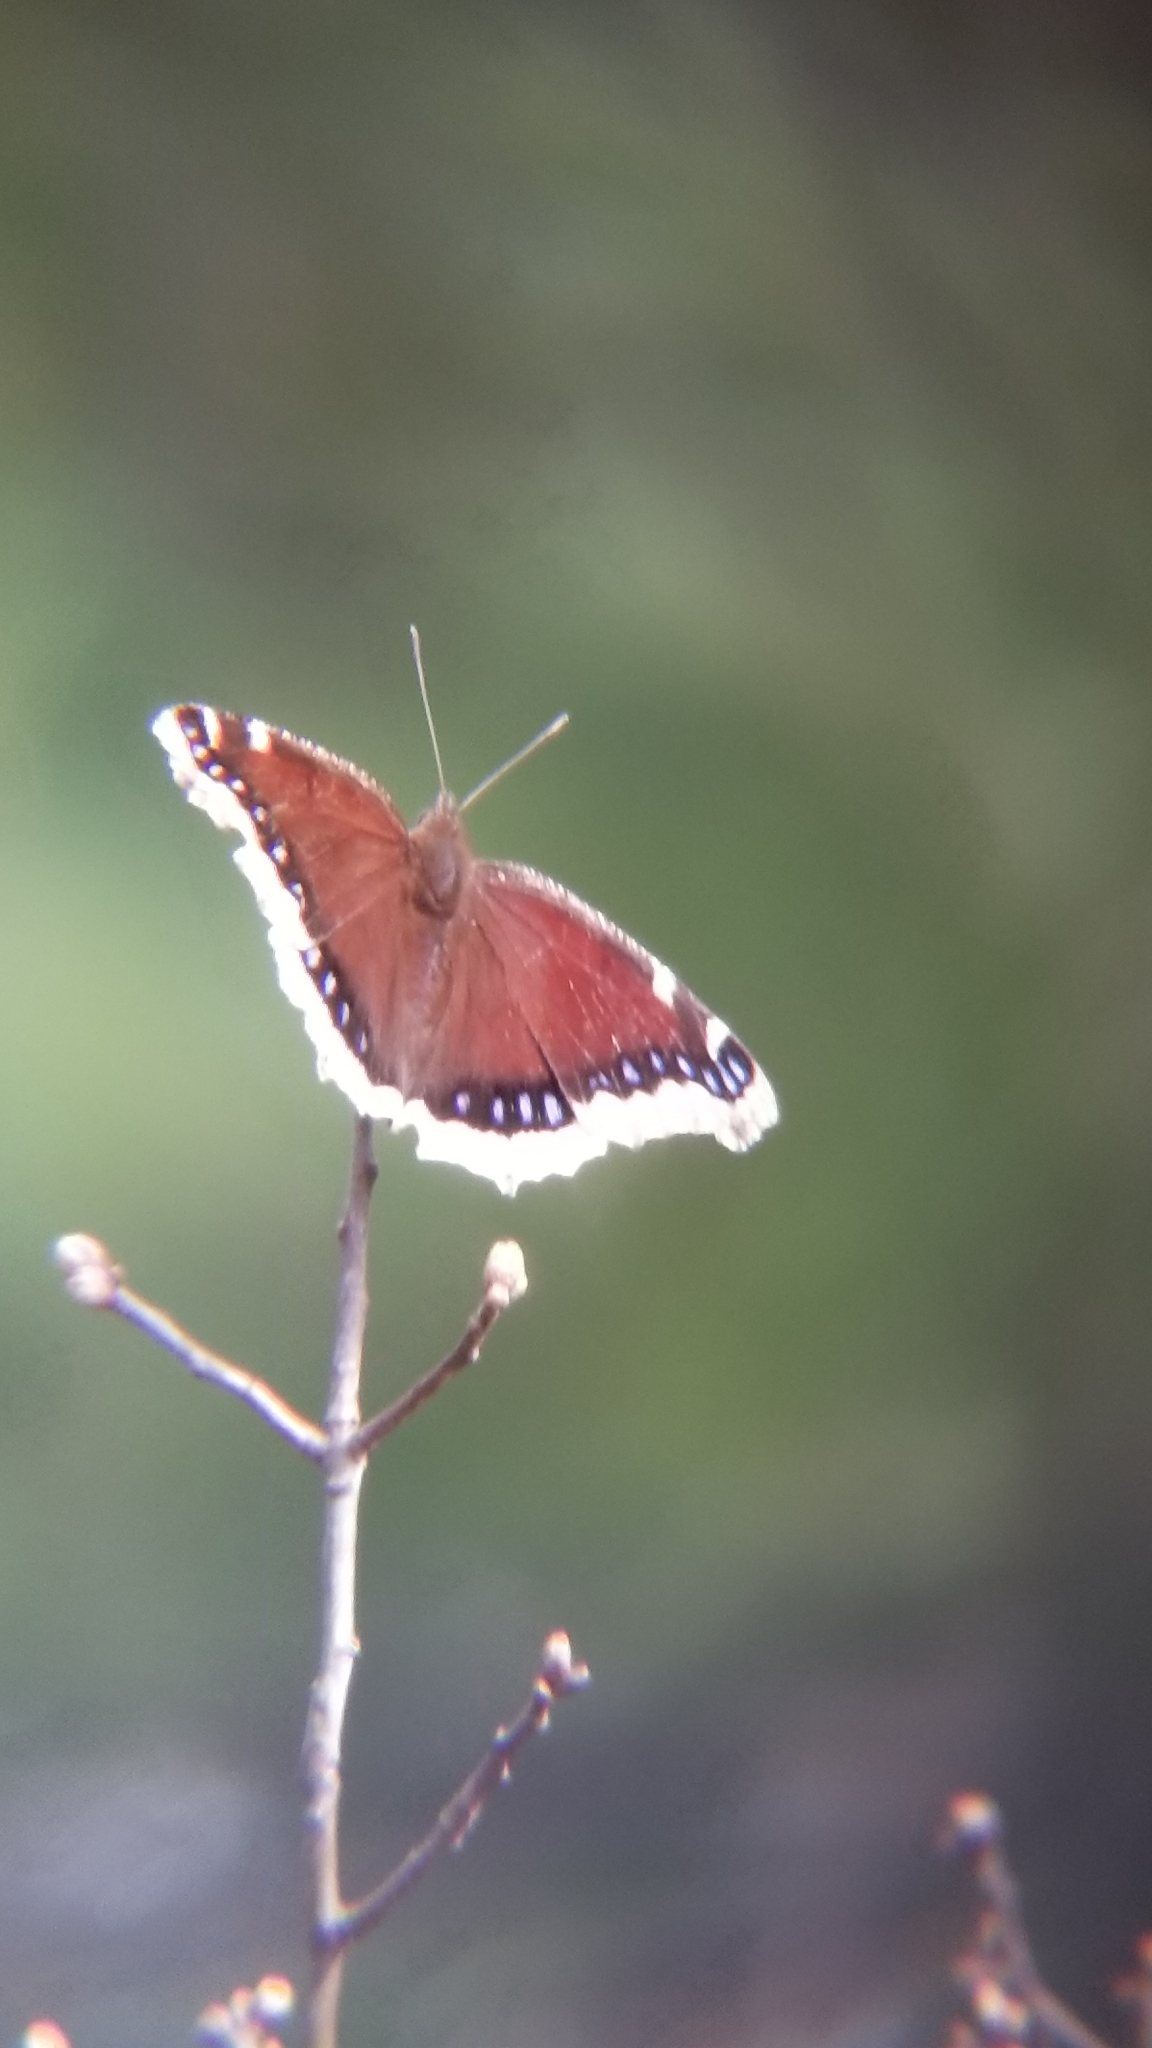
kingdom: Animalia
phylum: Arthropoda
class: Insecta
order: Lepidoptera
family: Nymphalidae
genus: Nymphalis
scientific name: Nymphalis antiopa
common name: Camberwell beauty
